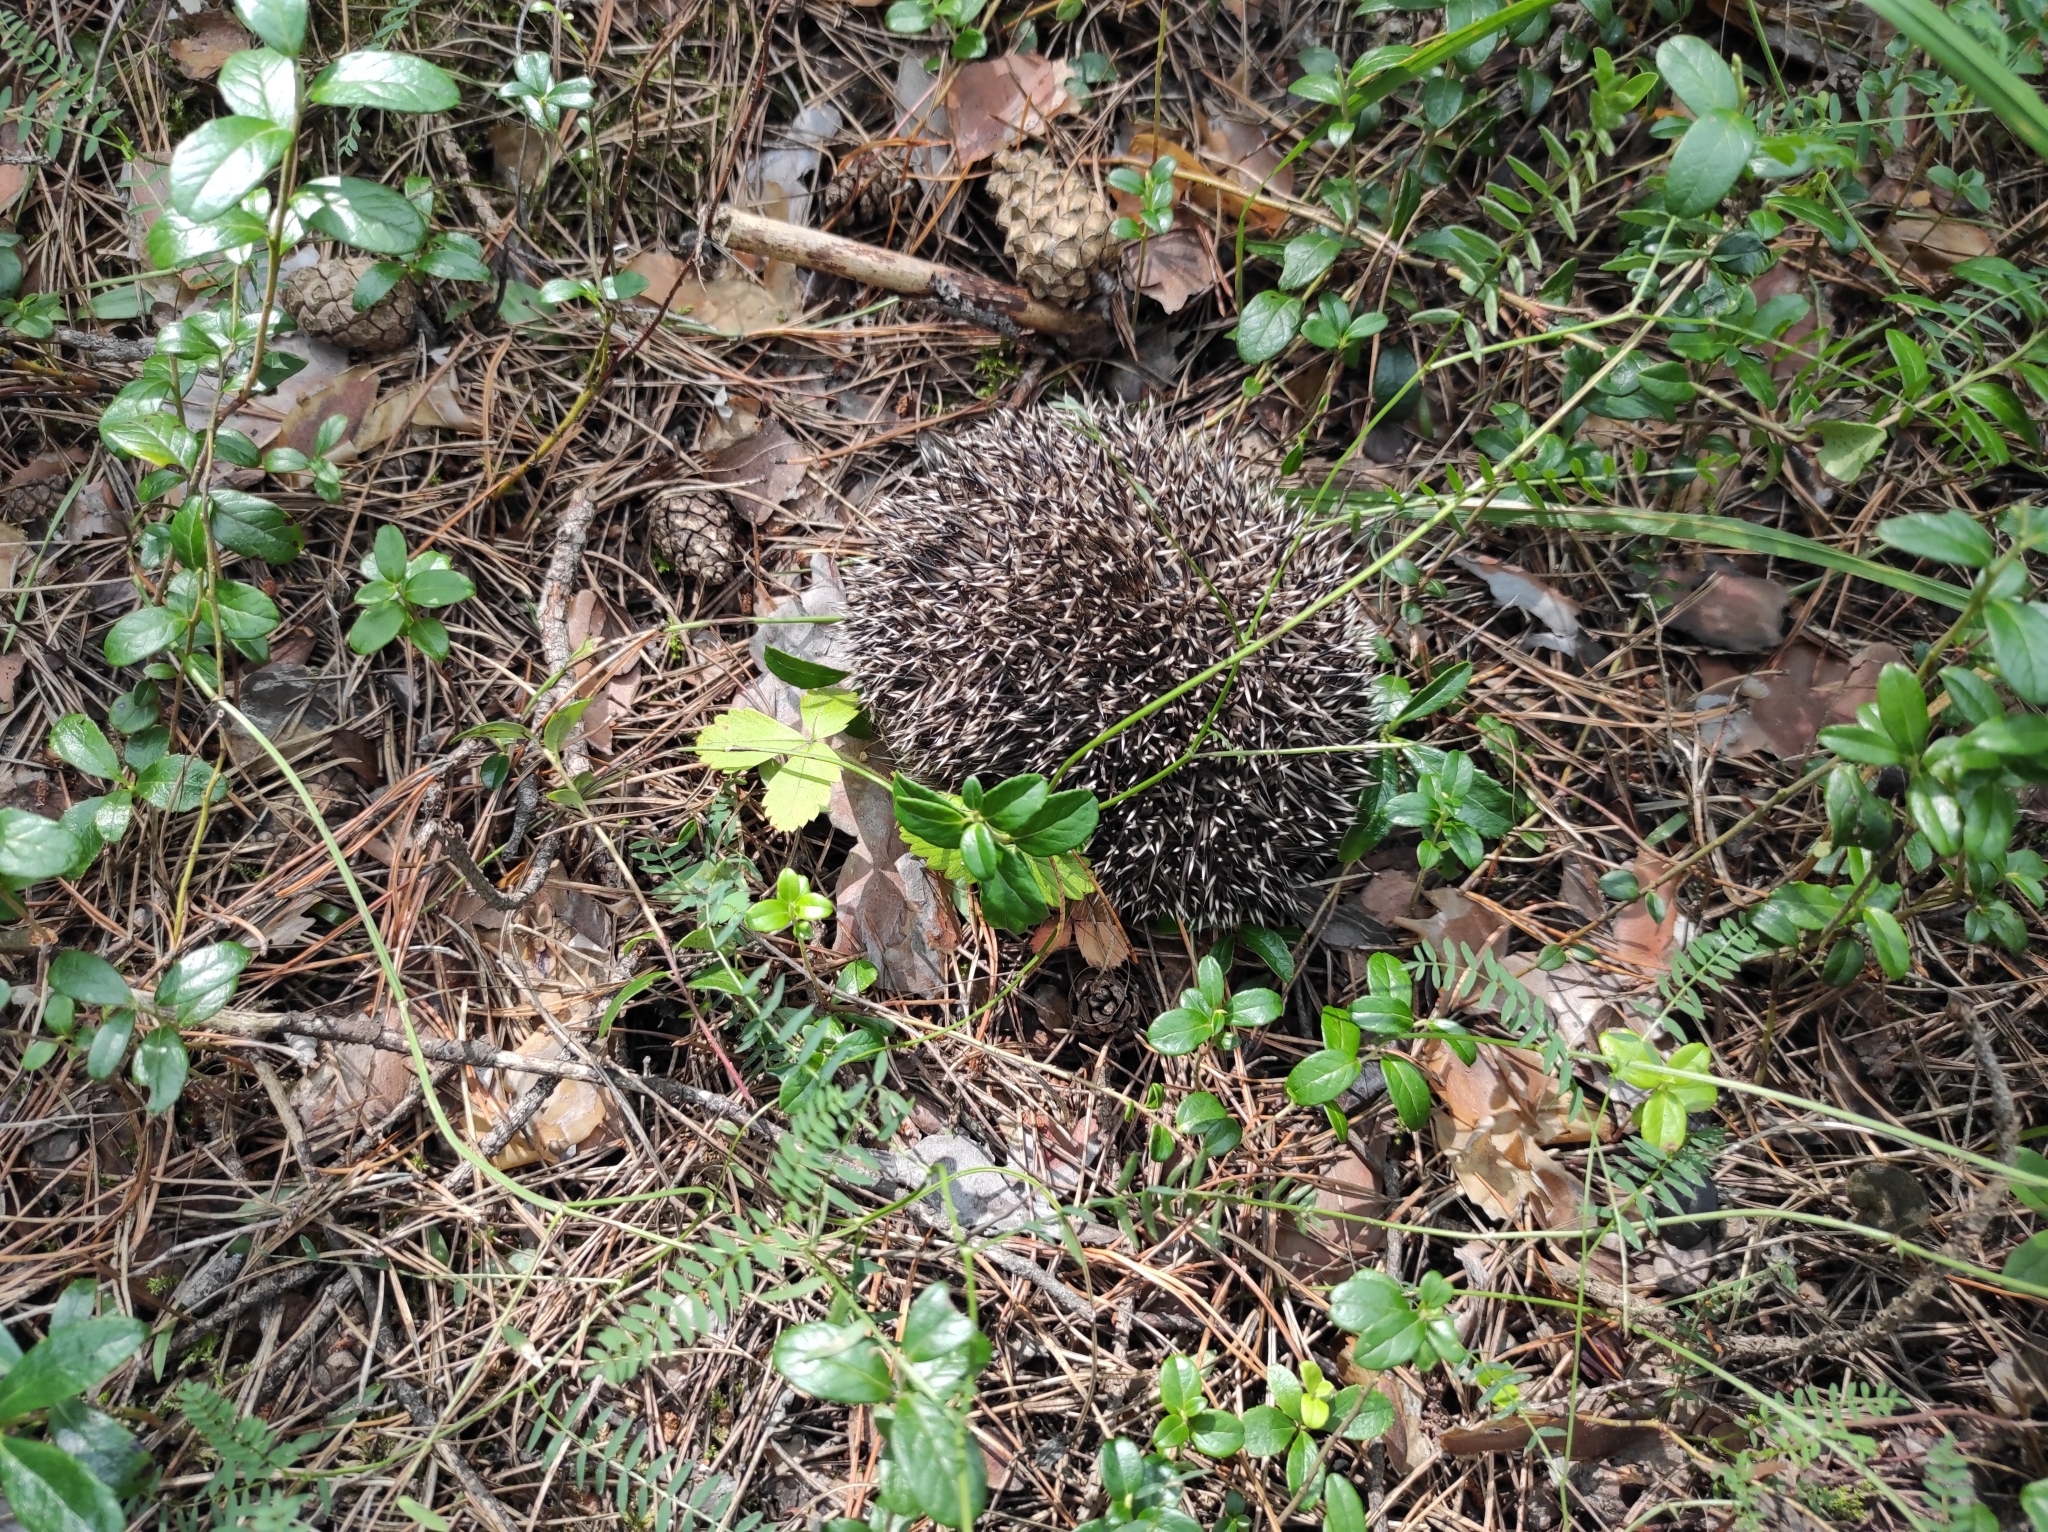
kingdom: Animalia
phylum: Chordata
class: Mammalia
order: Erinaceomorpha
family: Erinaceidae
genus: Erinaceus
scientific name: Erinaceus roumanicus
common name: Northern white-breasted hedgehog
